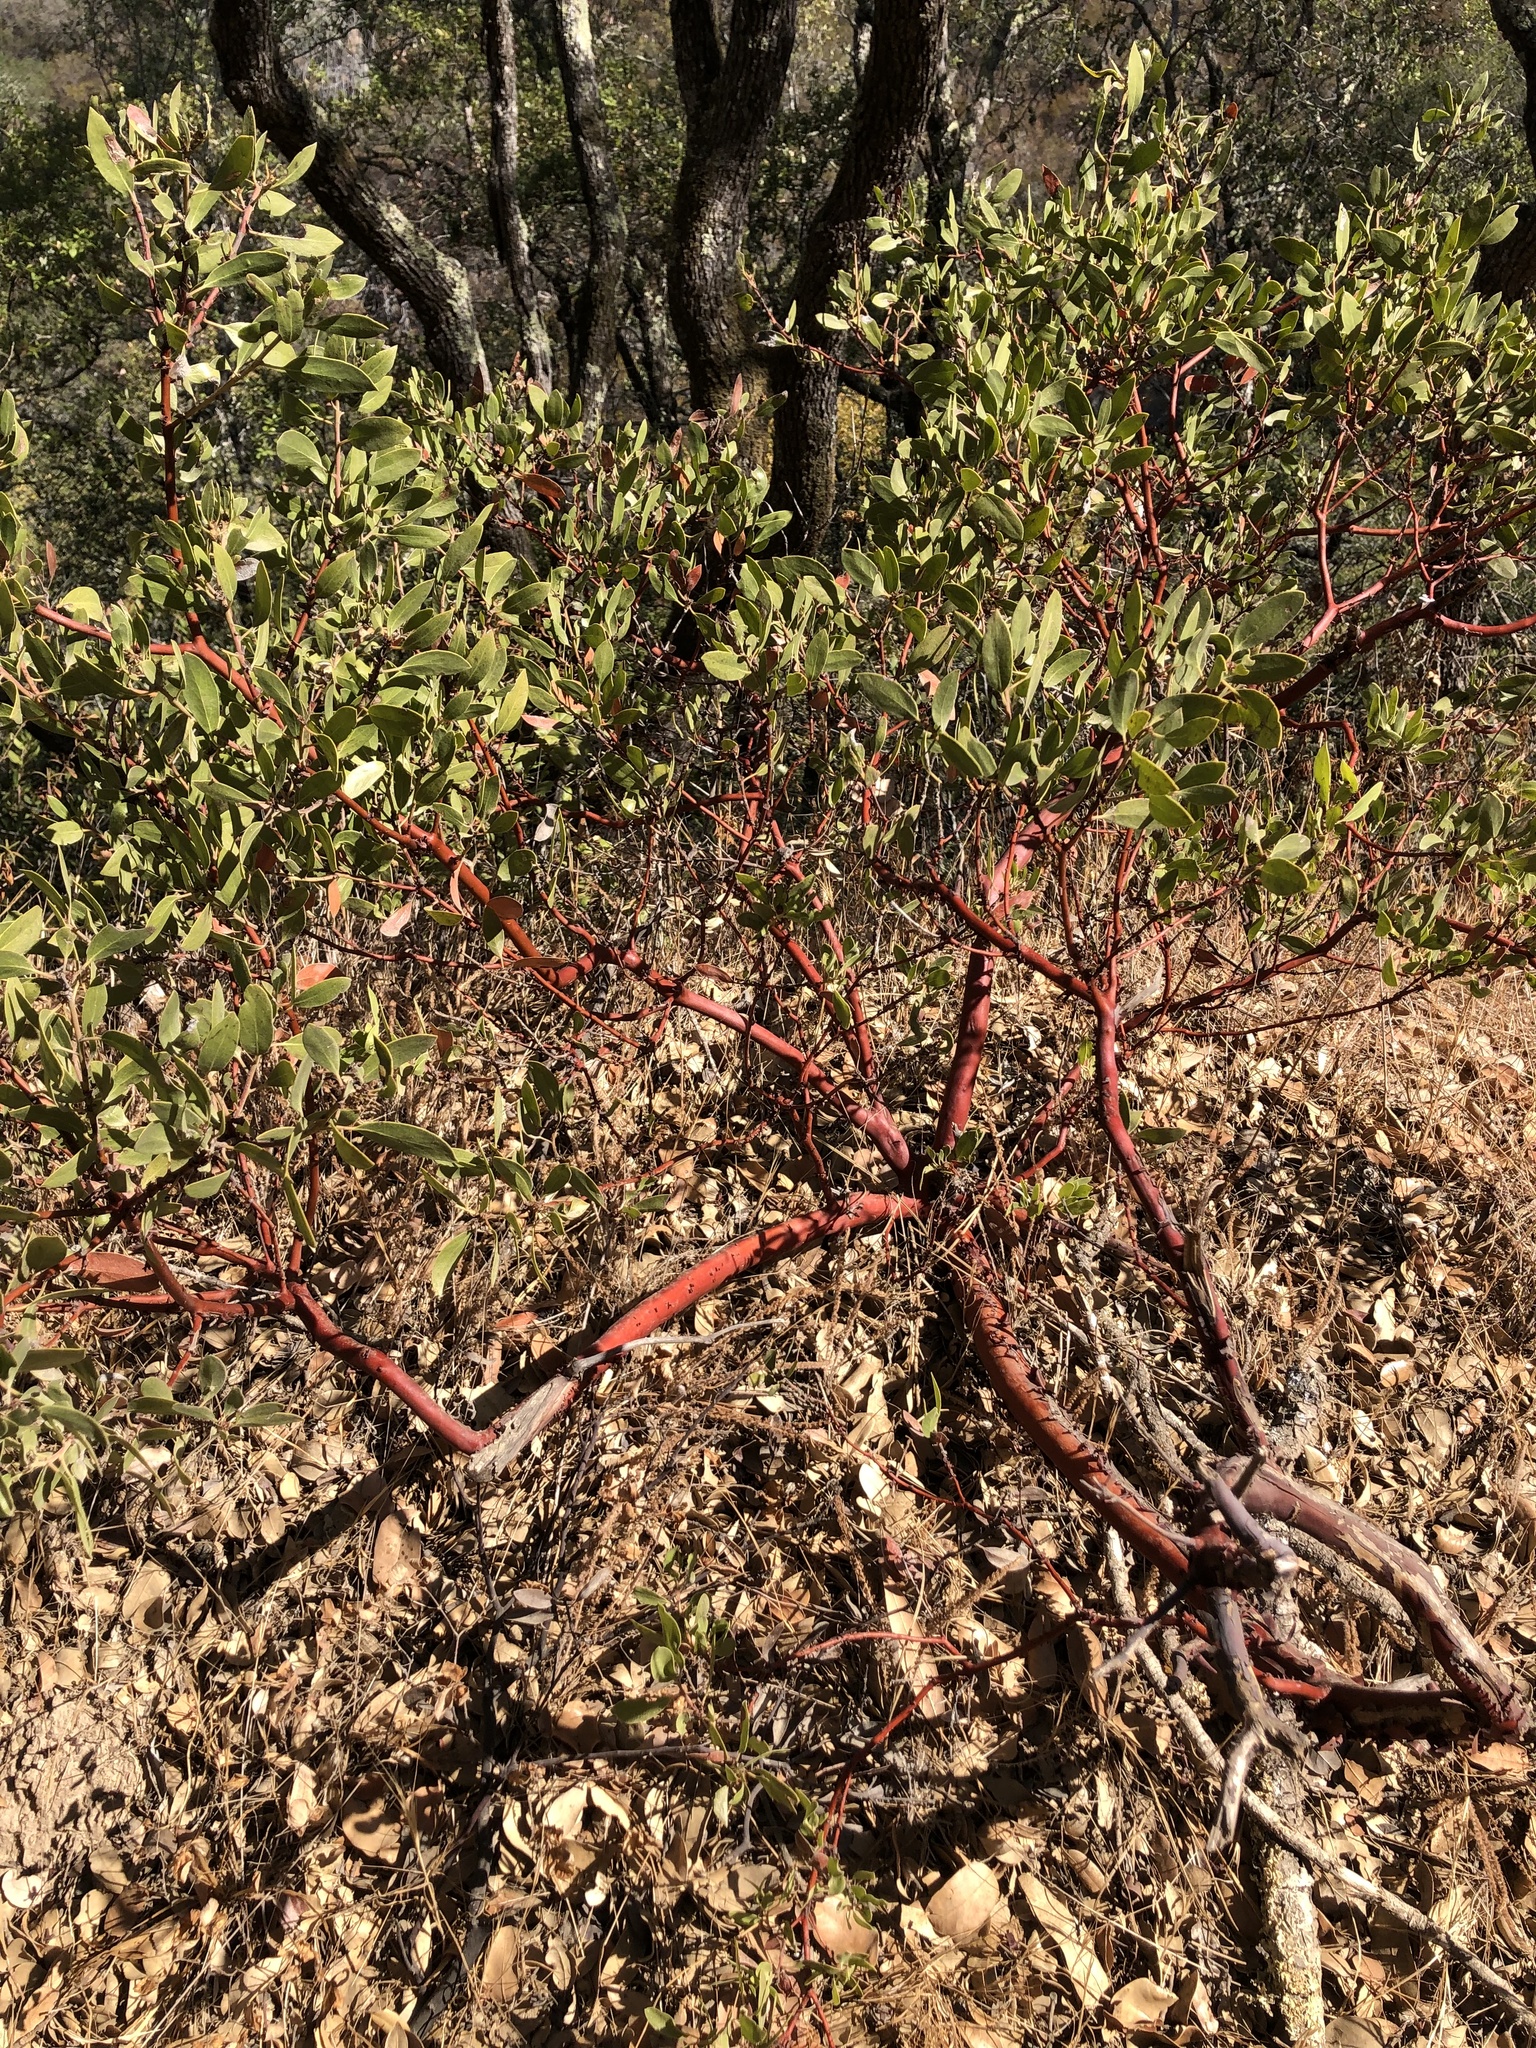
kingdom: Plantae
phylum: Tracheophyta
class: Magnoliopsida
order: Ericales
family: Ericaceae
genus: Arctostaphylos
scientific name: Arctostaphylos manzanita
